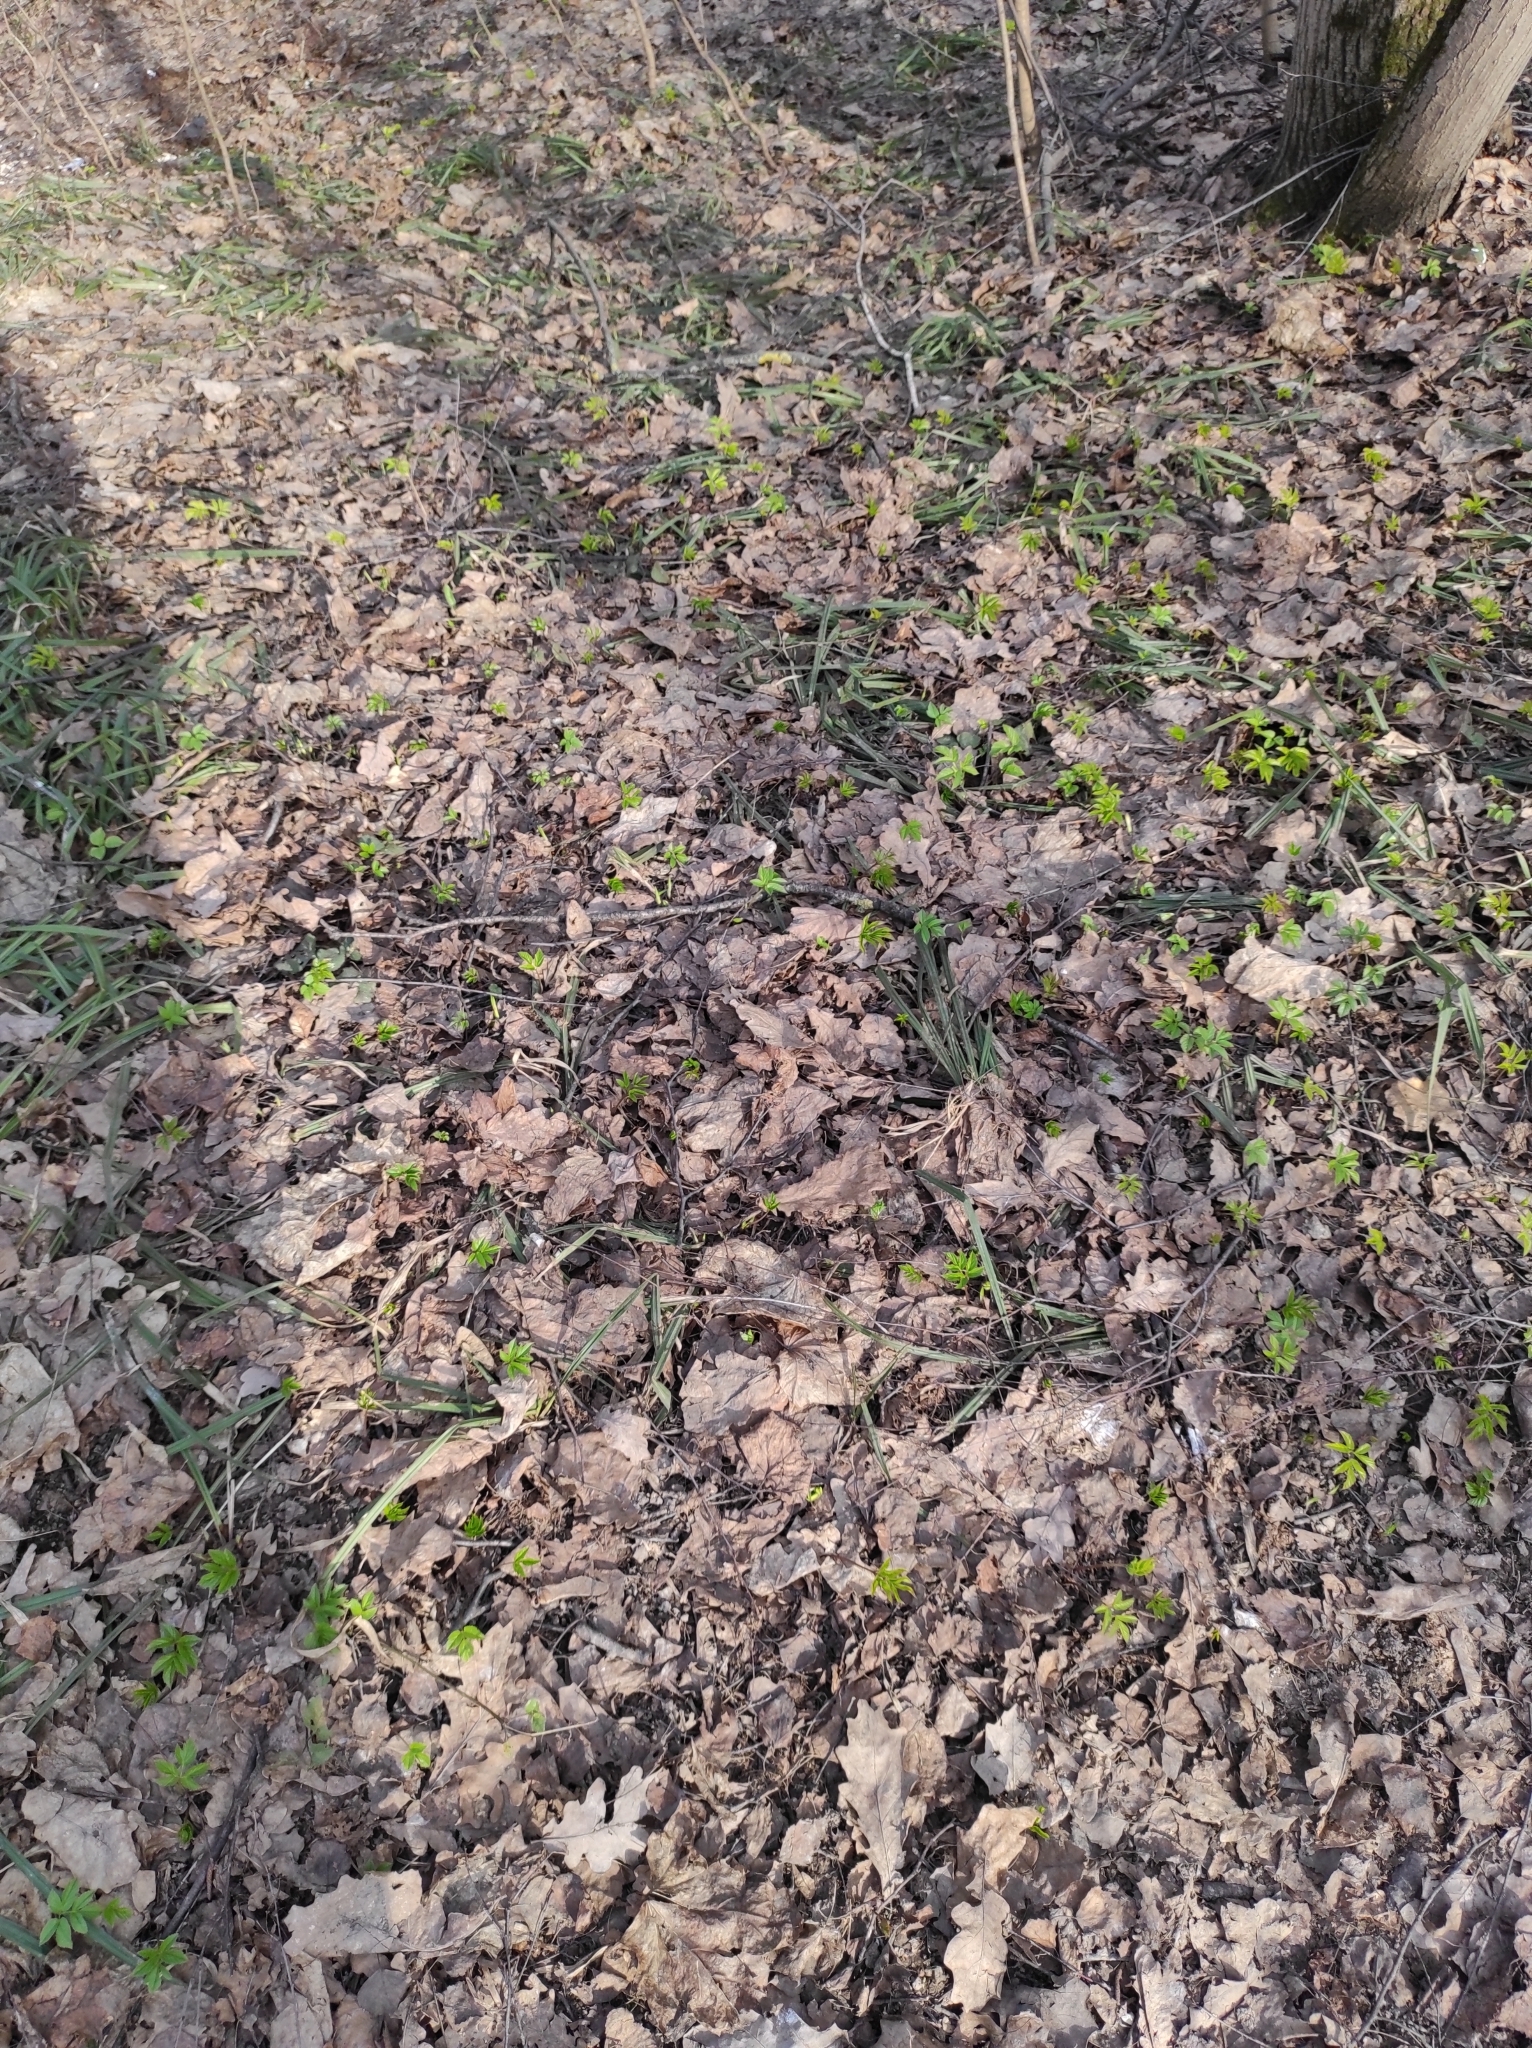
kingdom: Plantae
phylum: Tracheophyta
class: Magnoliopsida
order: Apiales
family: Apiaceae
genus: Aegopodium
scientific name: Aegopodium podagraria
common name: Ground-elder
